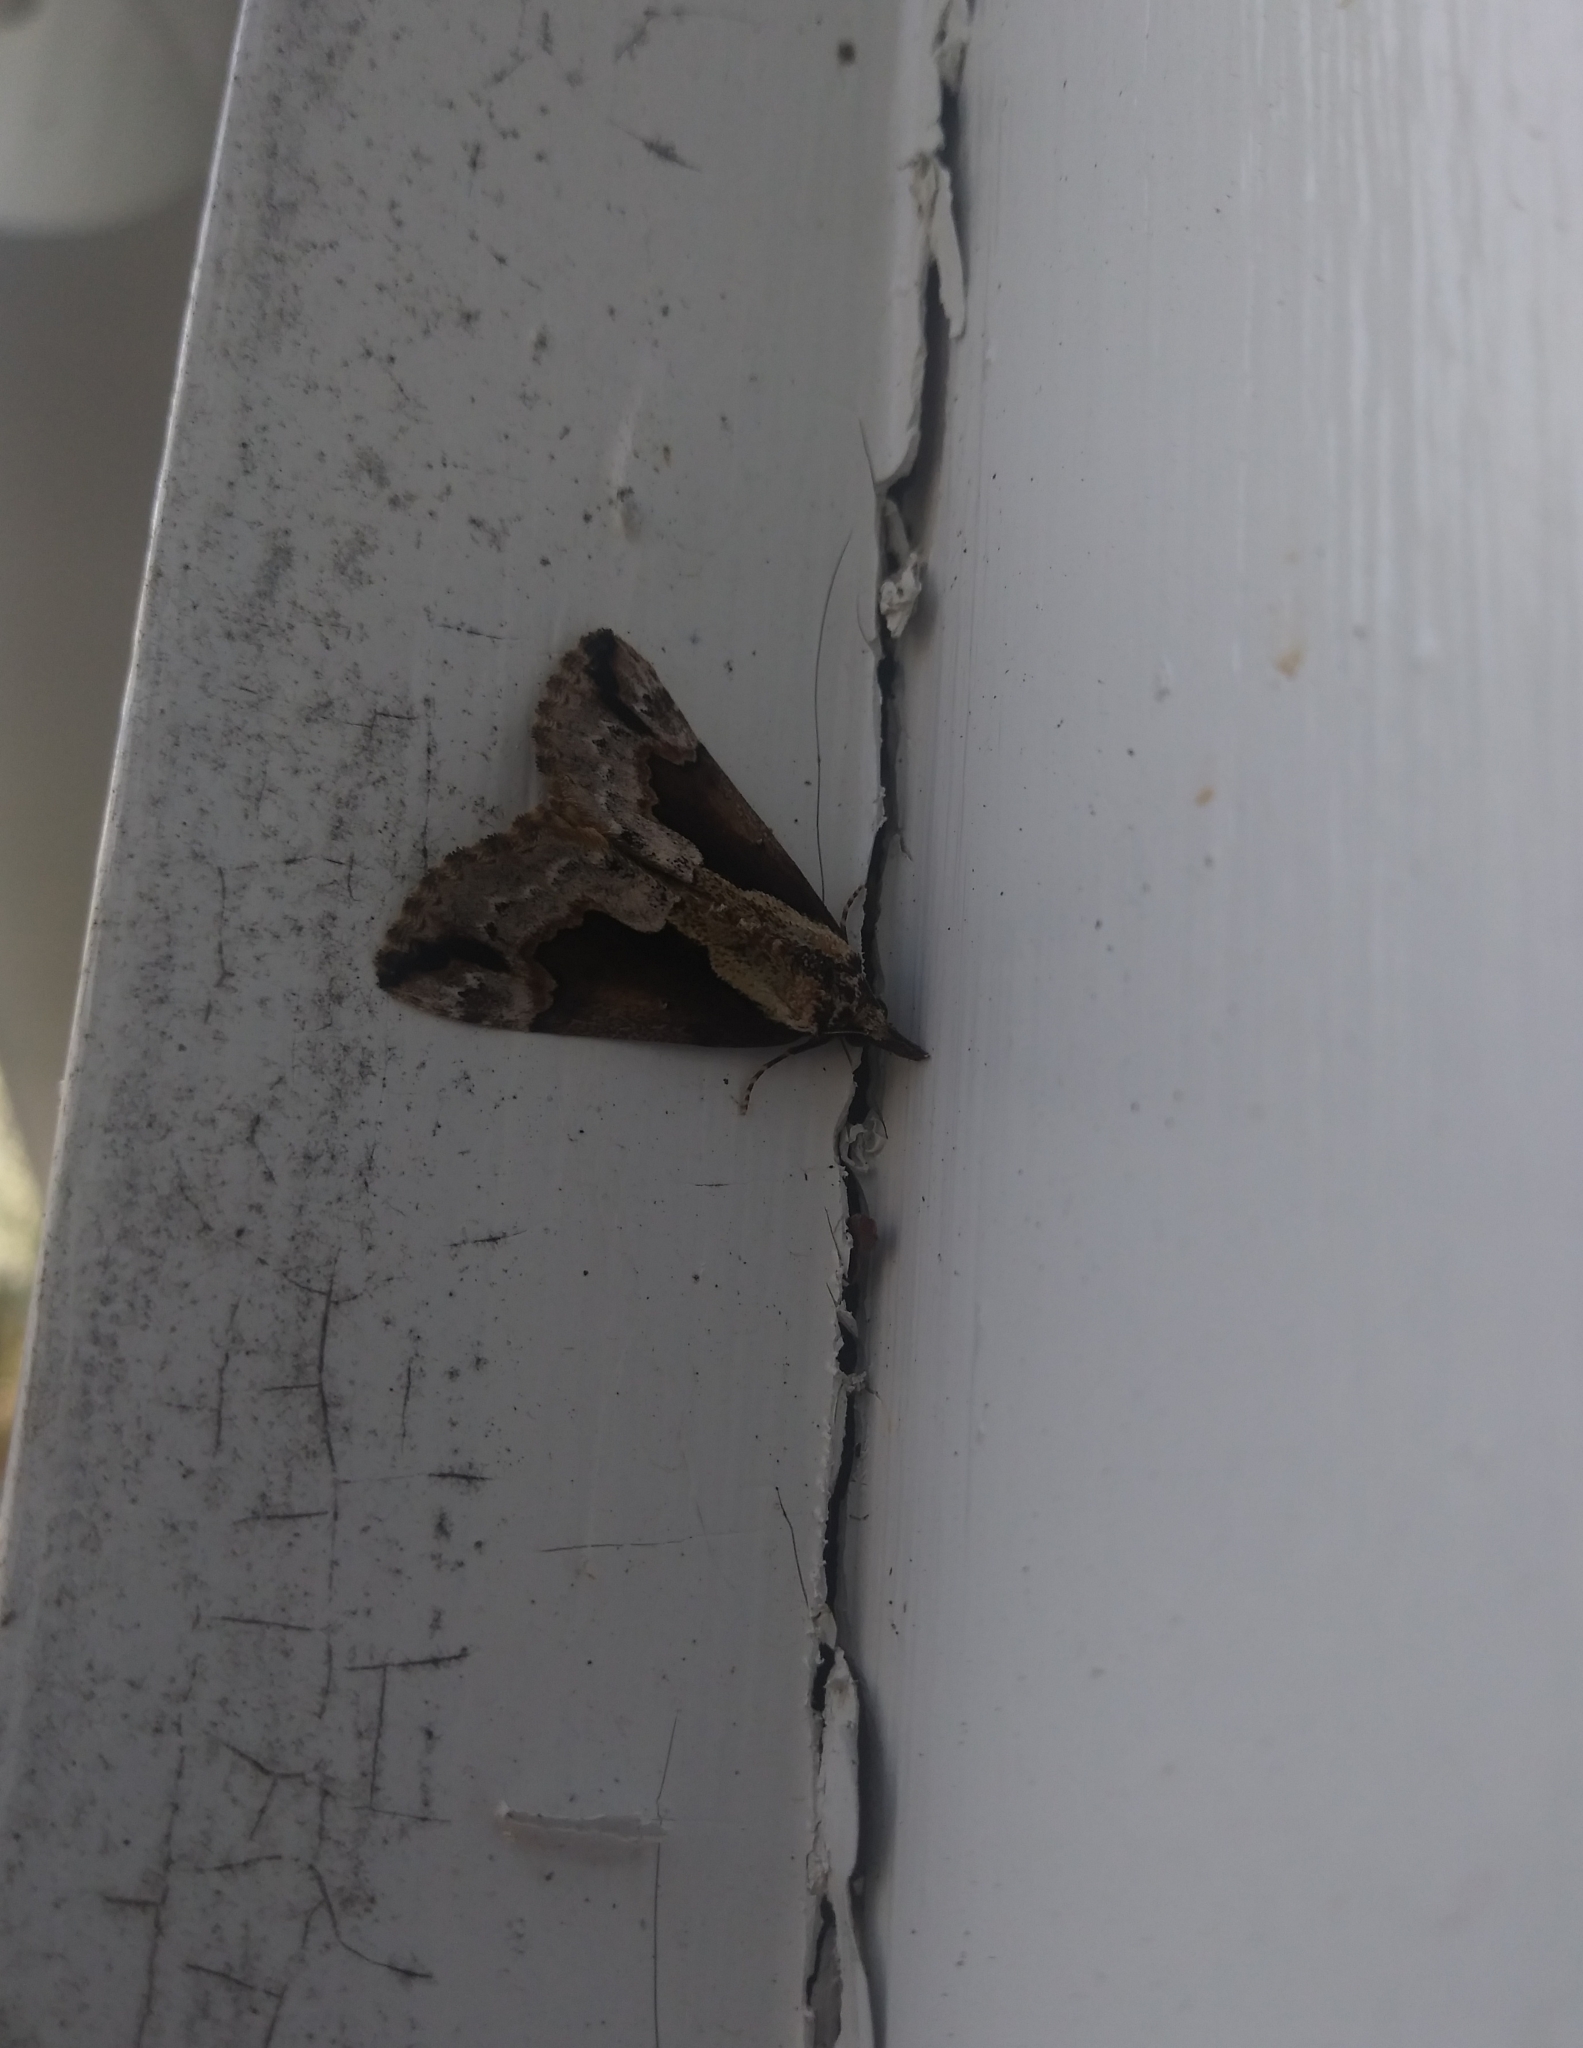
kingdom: Animalia
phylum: Arthropoda
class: Insecta
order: Lepidoptera
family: Erebidae
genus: Hypena
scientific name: Hypena baltimoralis
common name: Baltimore snout
